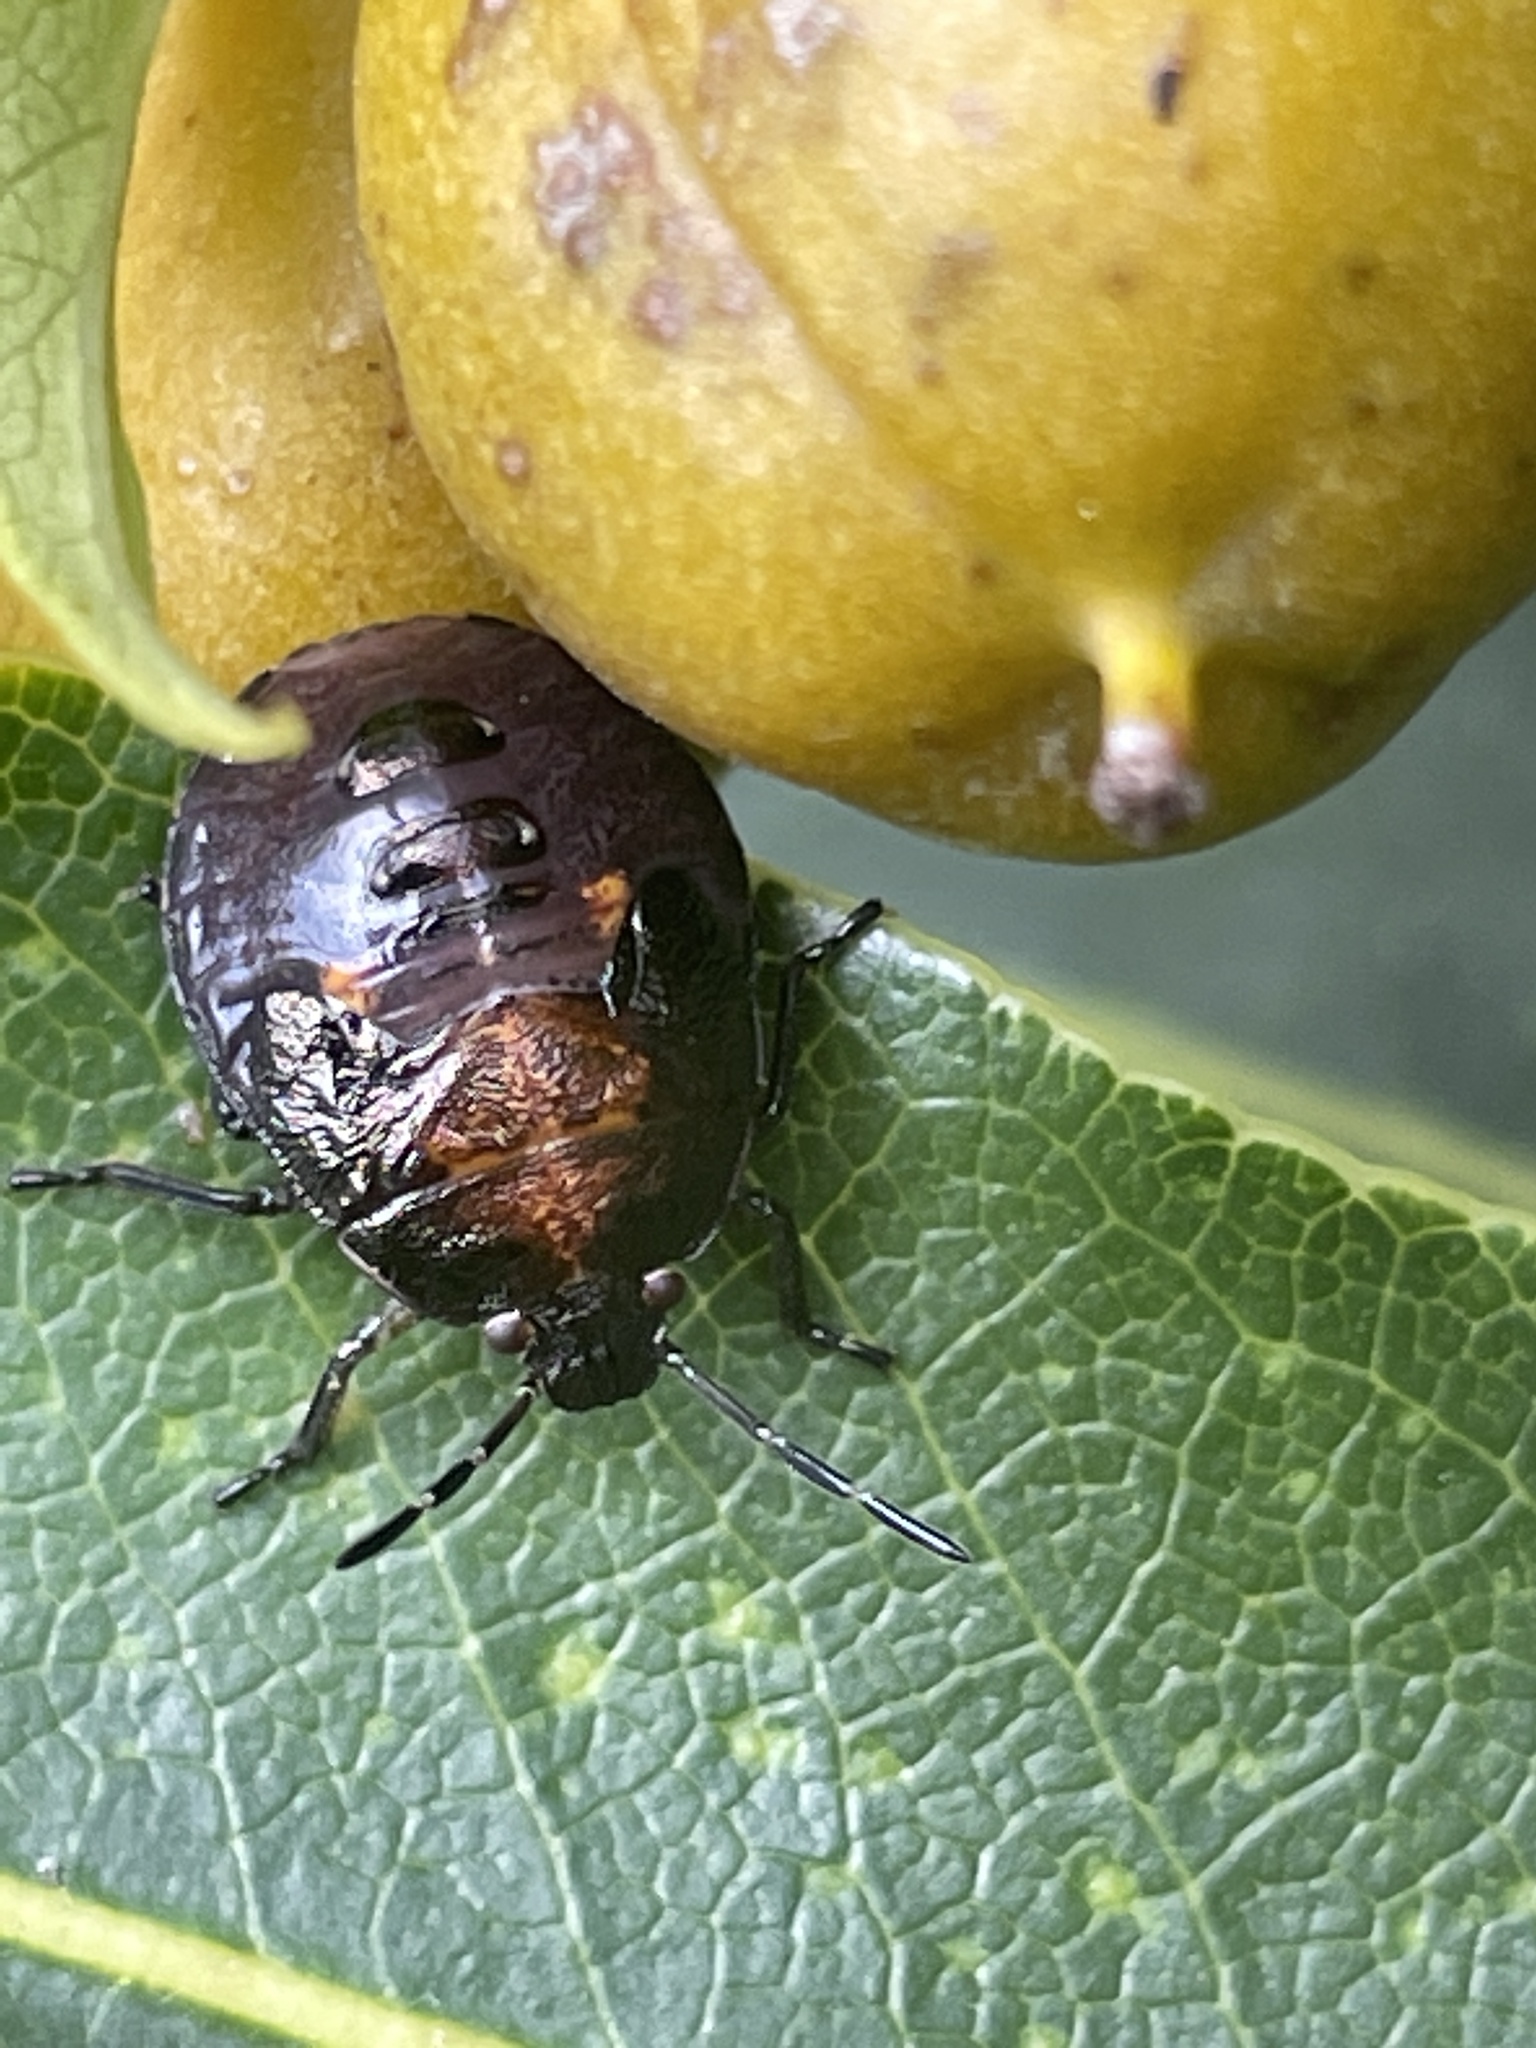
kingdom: Animalia
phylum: Arthropoda
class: Insecta
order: Hemiptera
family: Pentatomidae
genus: Monteithiella
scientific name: Monteithiella
